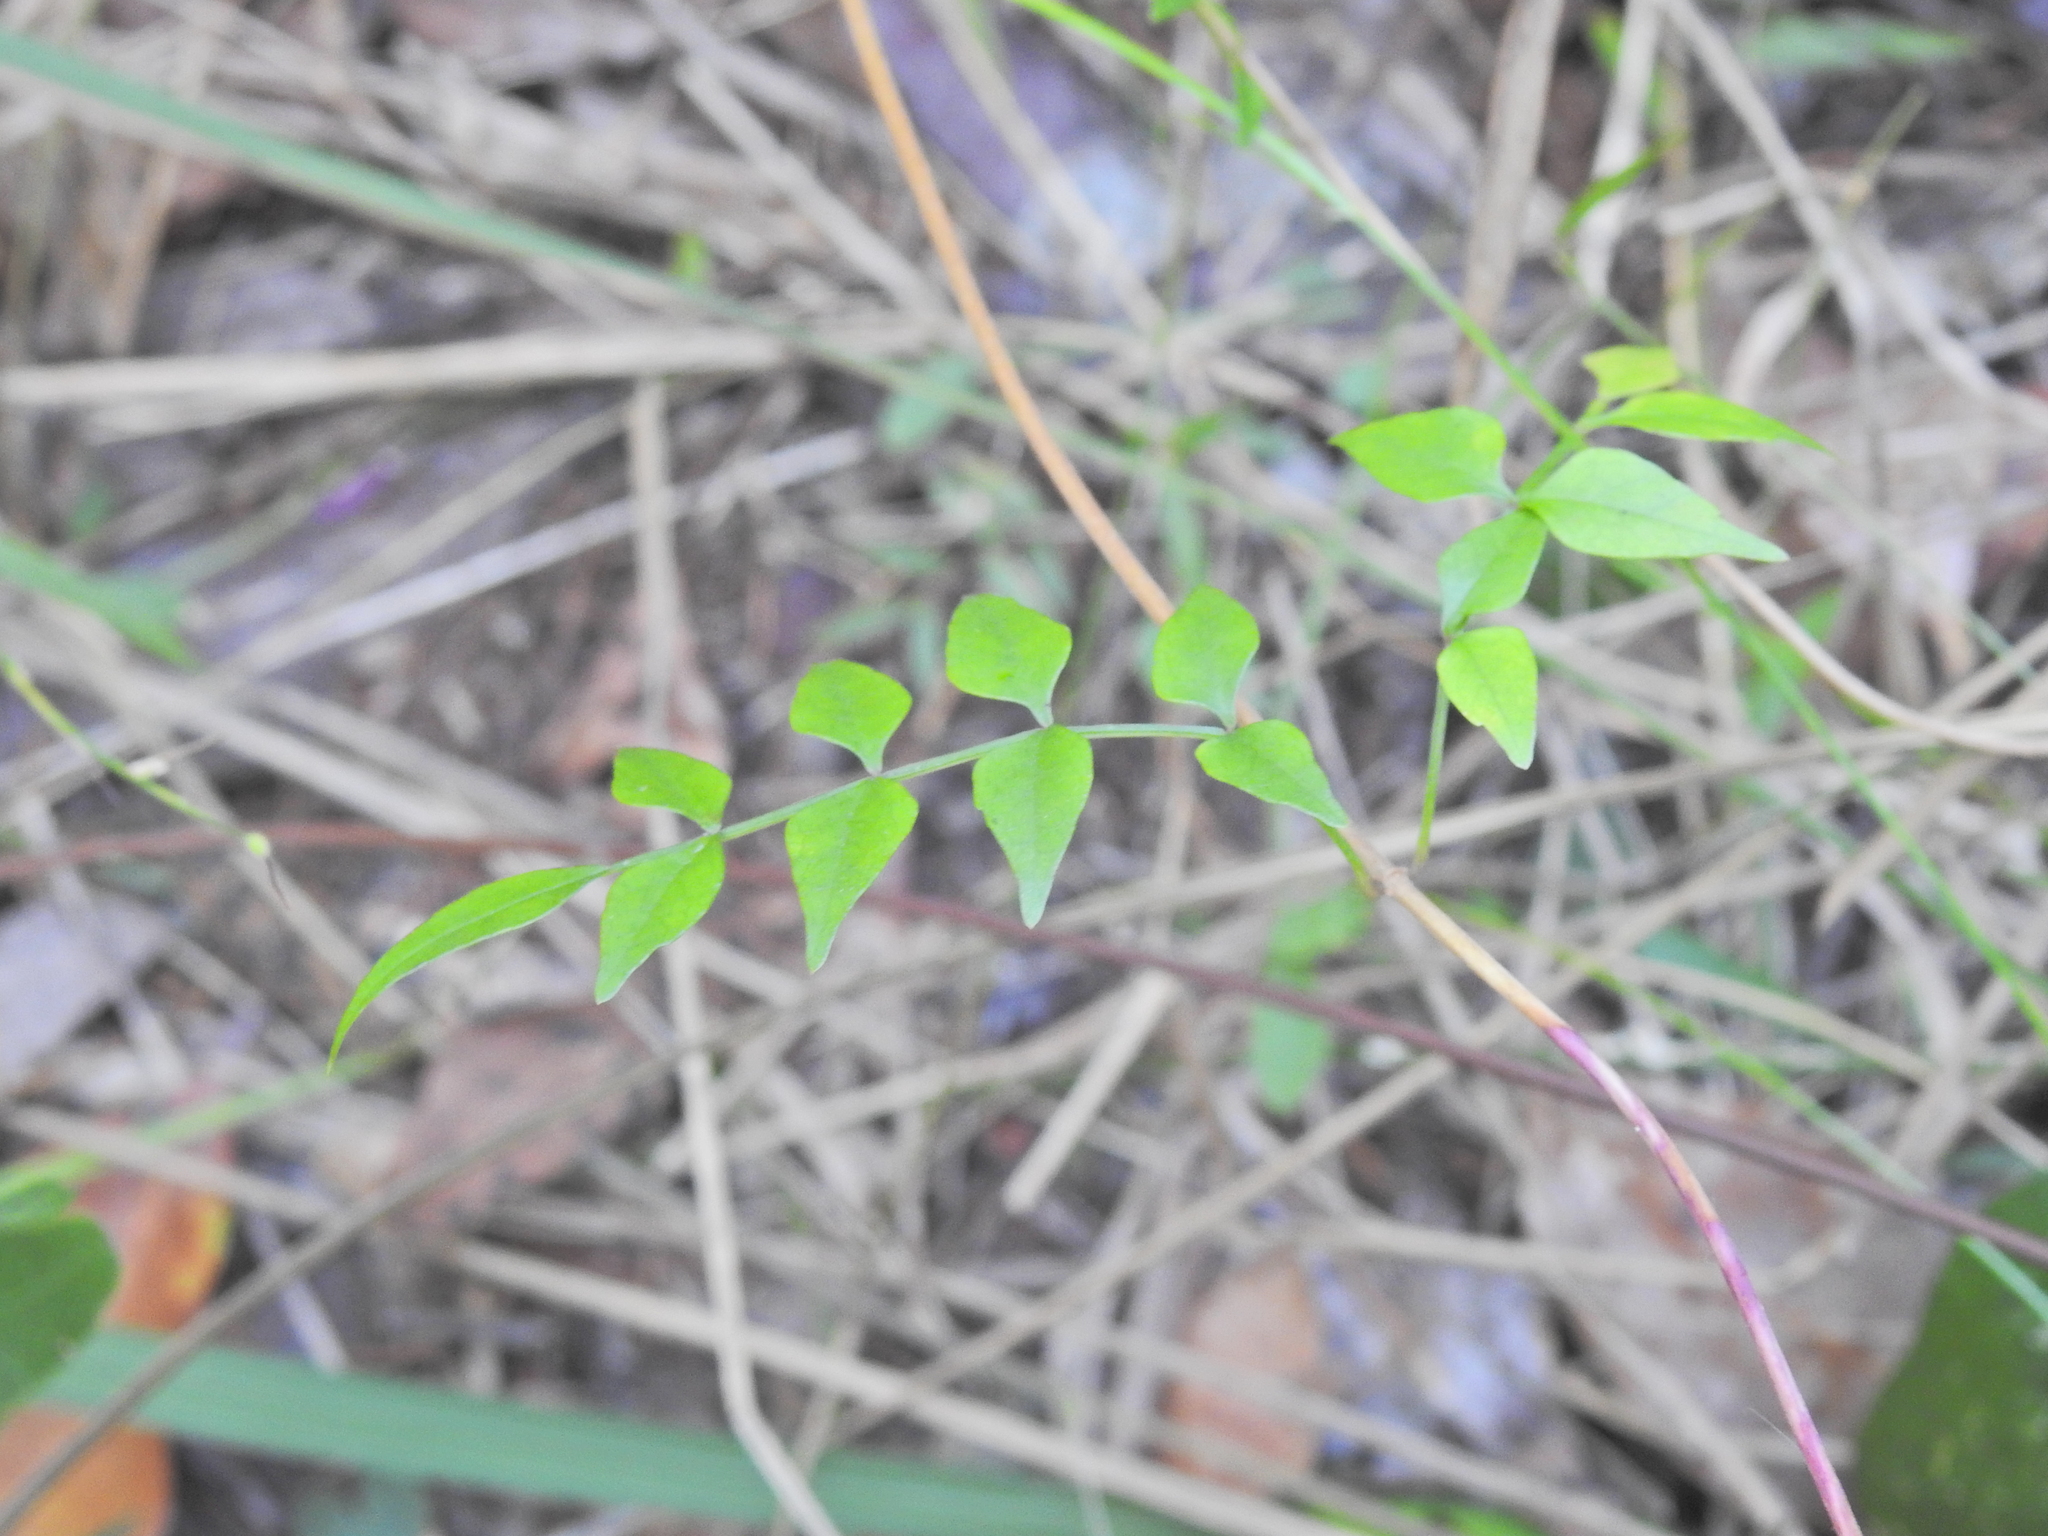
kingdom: Plantae
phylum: Tracheophyta
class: Magnoliopsida
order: Lamiales
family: Bignoniaceae
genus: Pandorea
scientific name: Pandorea pandorana
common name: Wonga-wonga-vine
